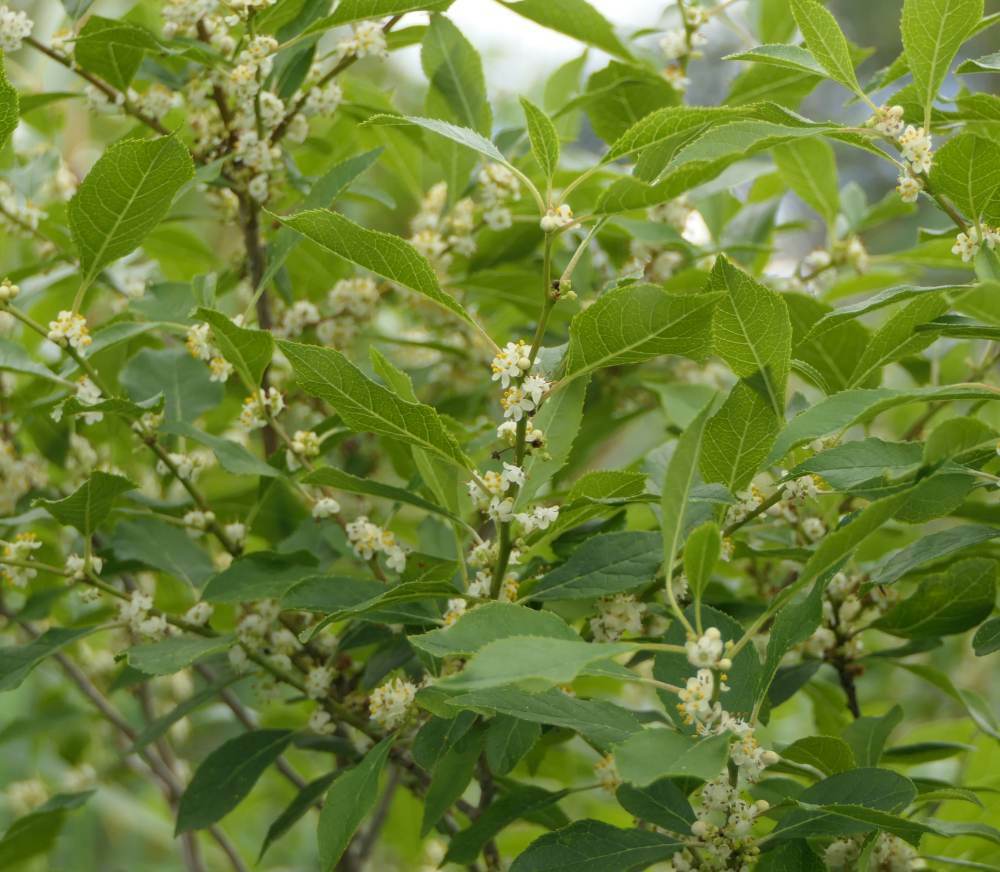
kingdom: Plantae
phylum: Tracheophyta
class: Magnoliopsida
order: Aquifoliales
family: Aquifoliaceae
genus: Ilex
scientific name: Ilex verticillata
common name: Virginia winterberry
